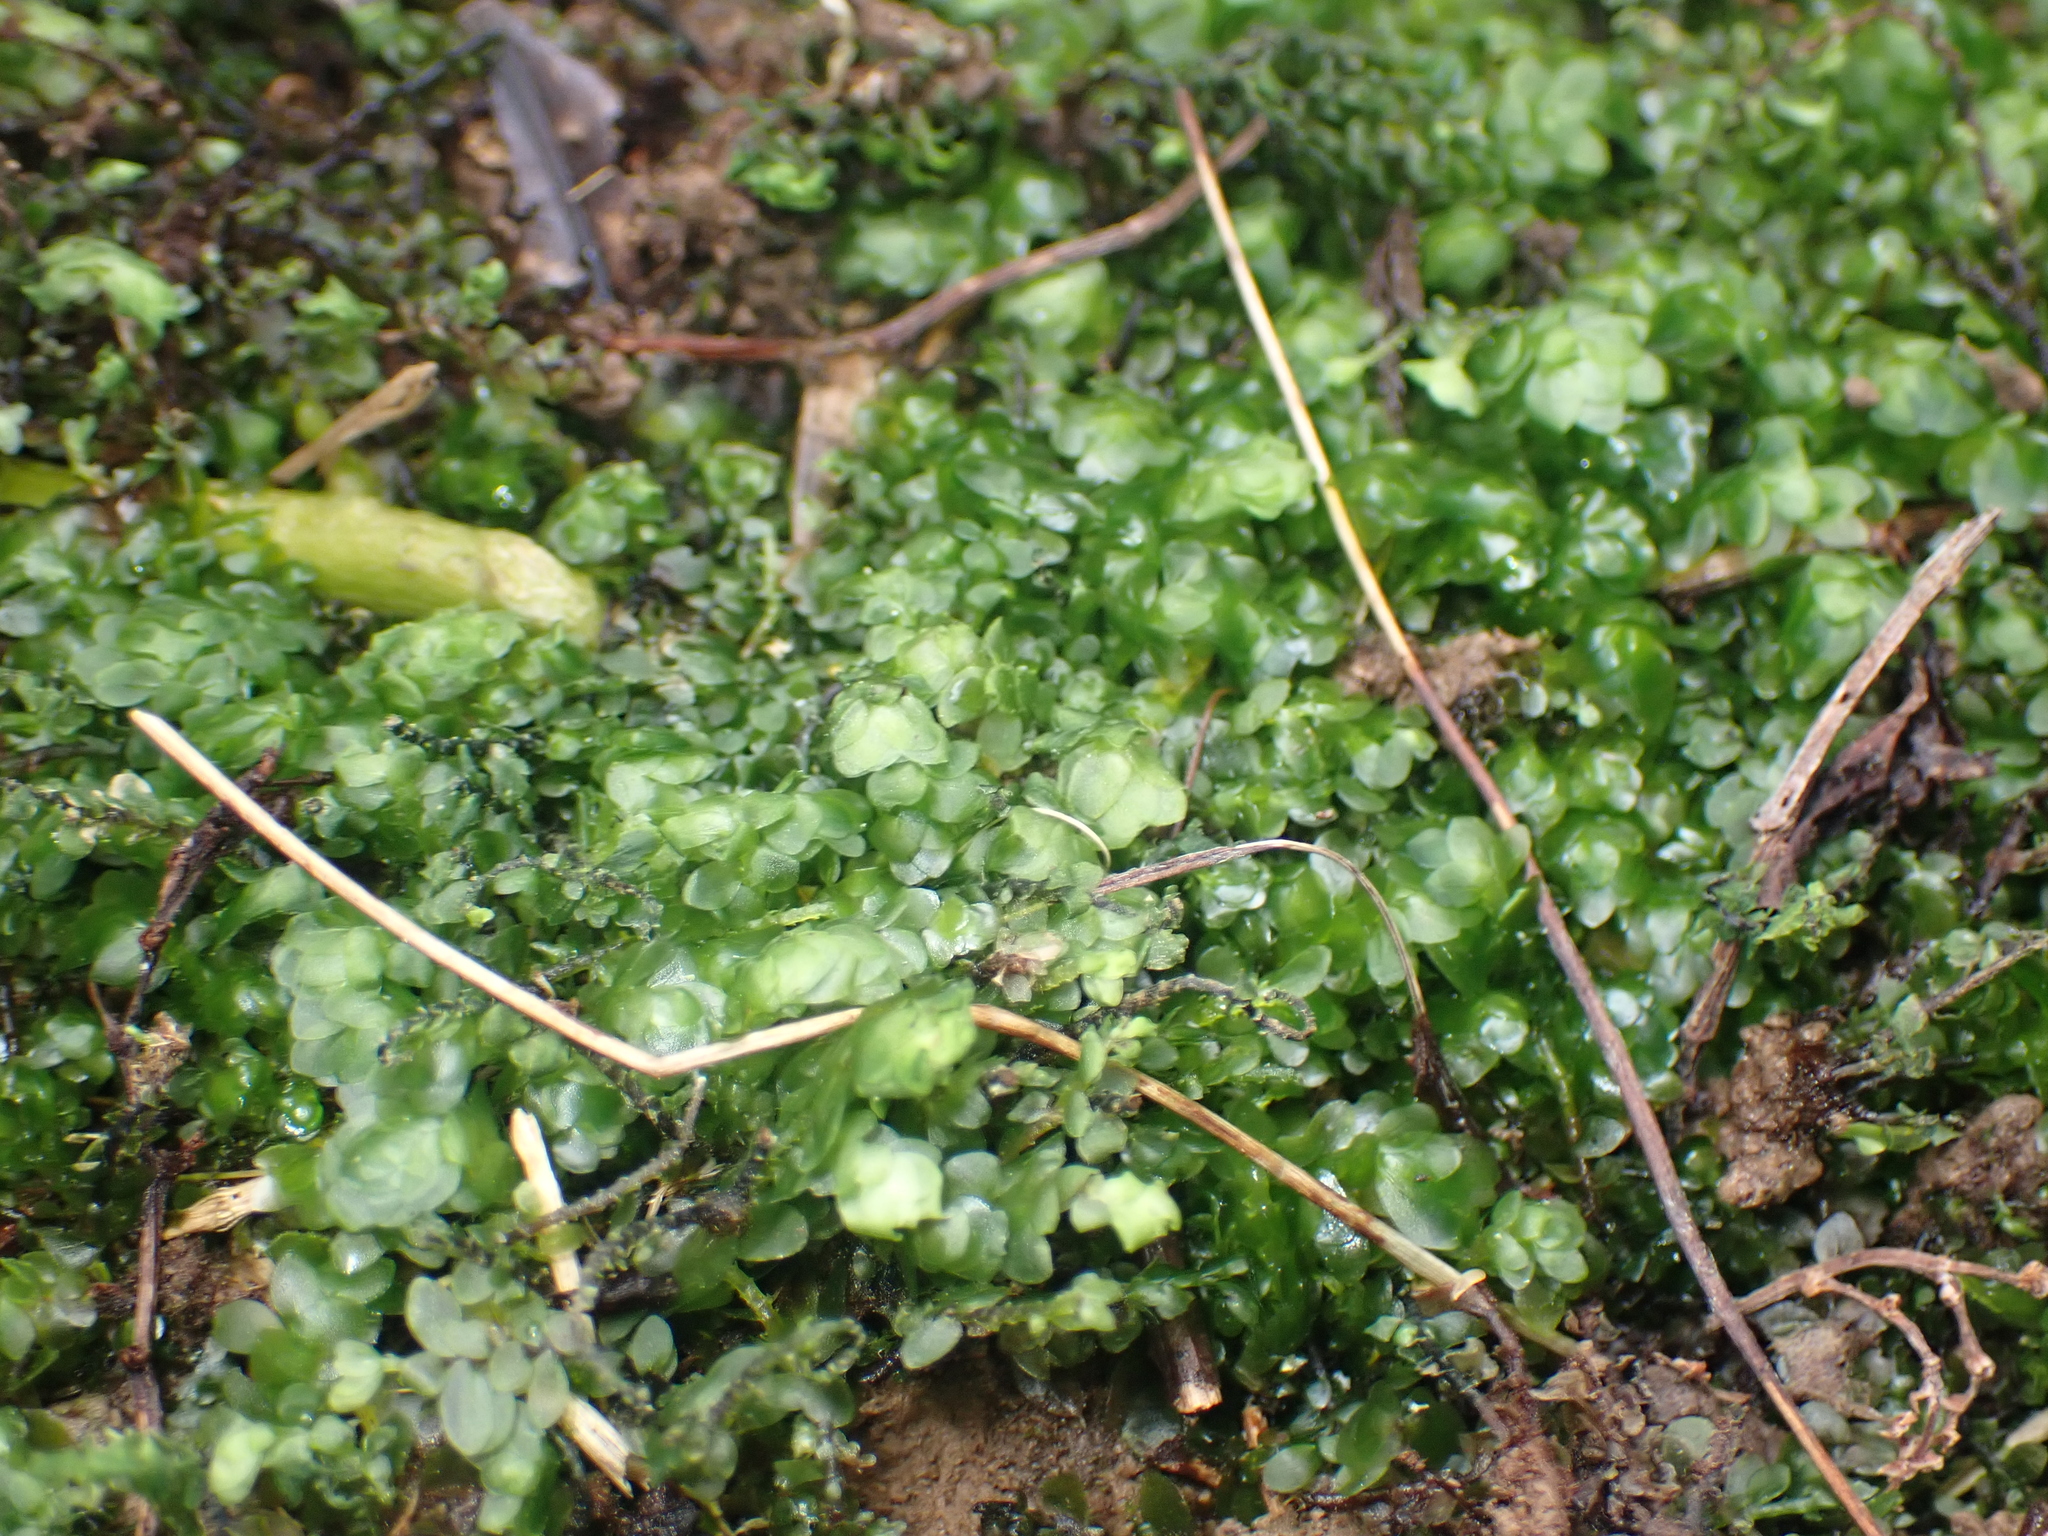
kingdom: Plantae
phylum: Bryophyta
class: Bryopsida
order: Hookeriales
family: Daltoniaceae
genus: Achrophyllum
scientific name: Achrophyllum dentatum
